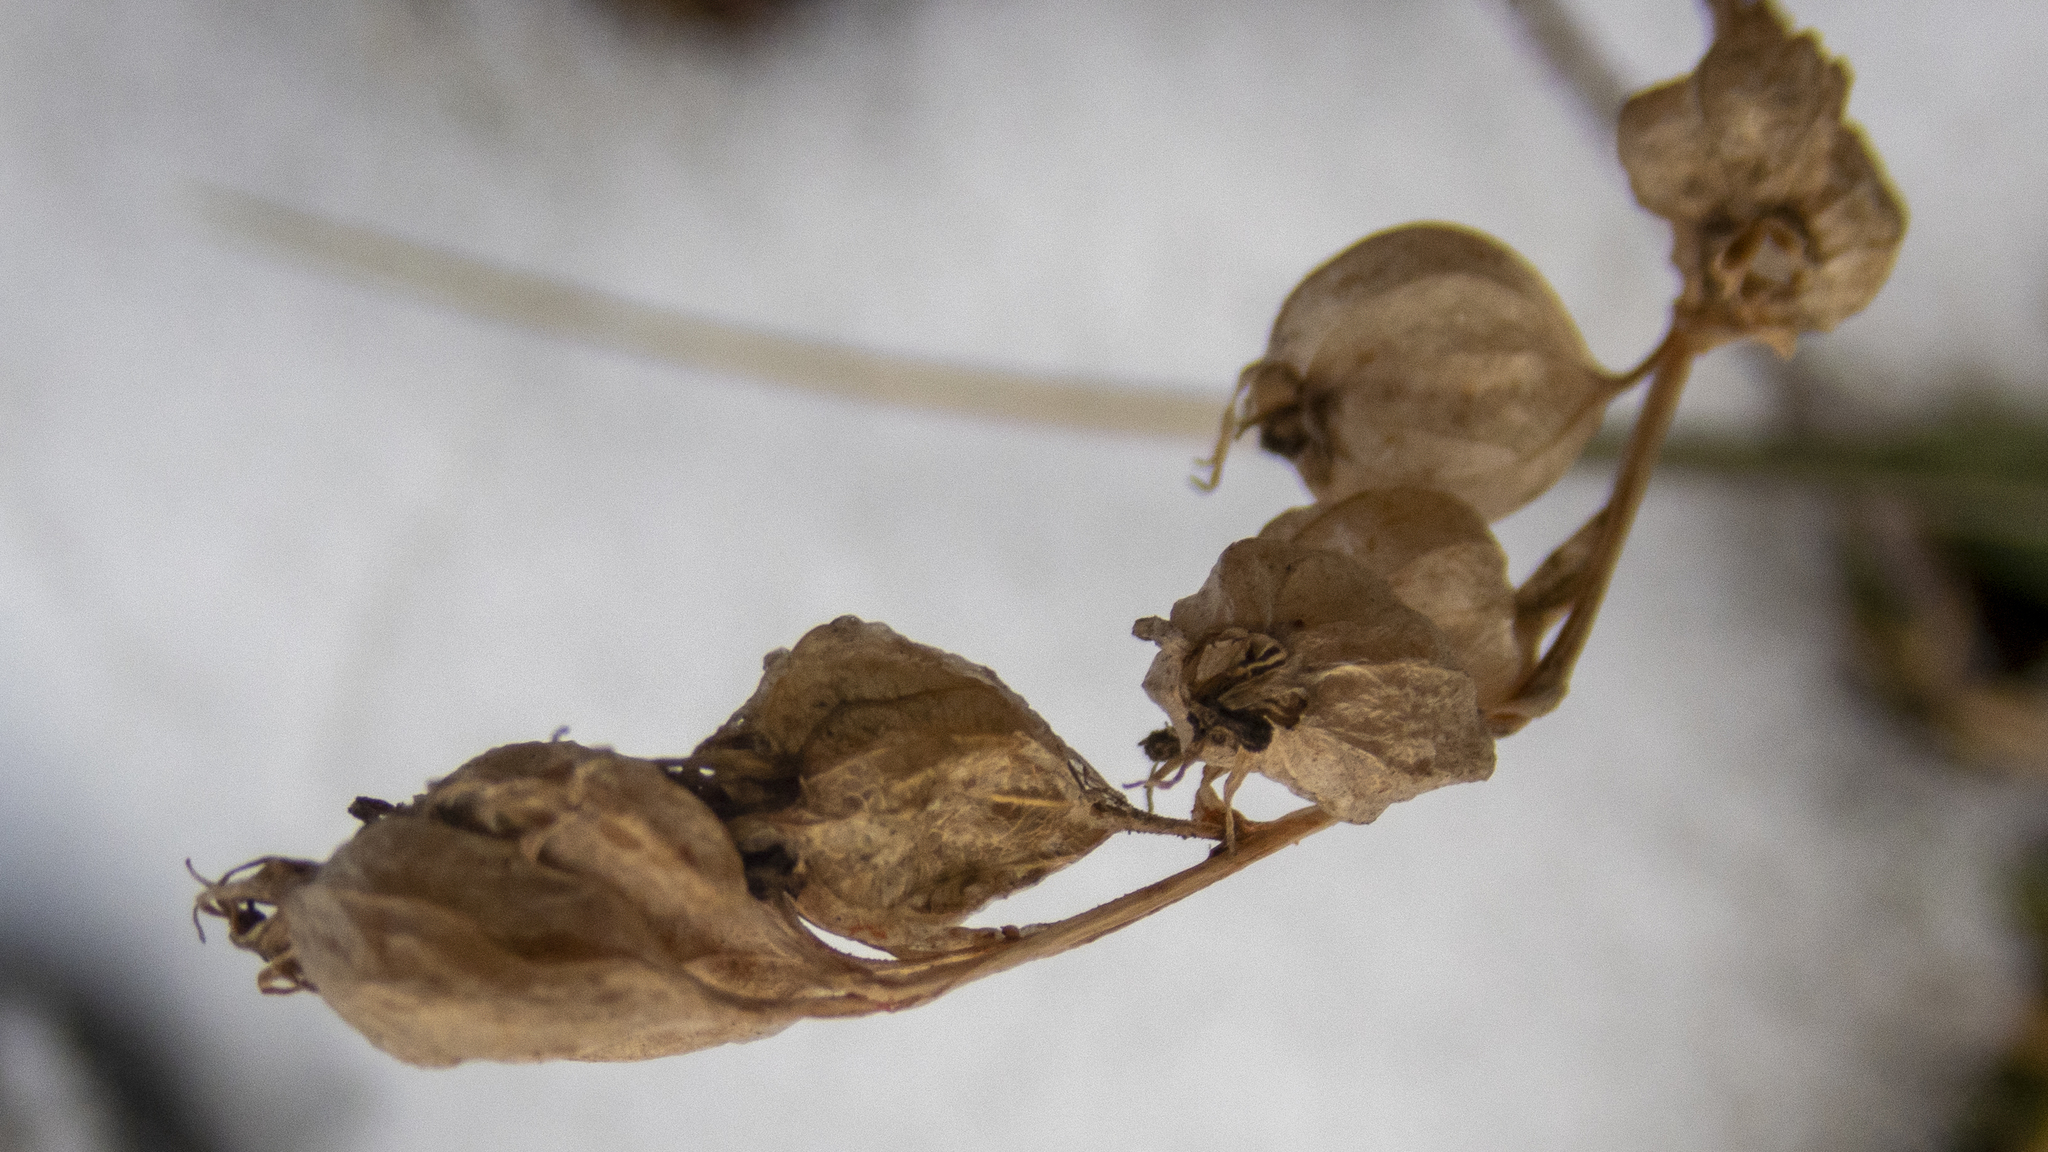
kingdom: Plantae
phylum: Tracheophyta
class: Magnoliopsida
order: Asterales
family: Campanulaceae
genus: Lobelia
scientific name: Lobelia inflata
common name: Indian tobacco
